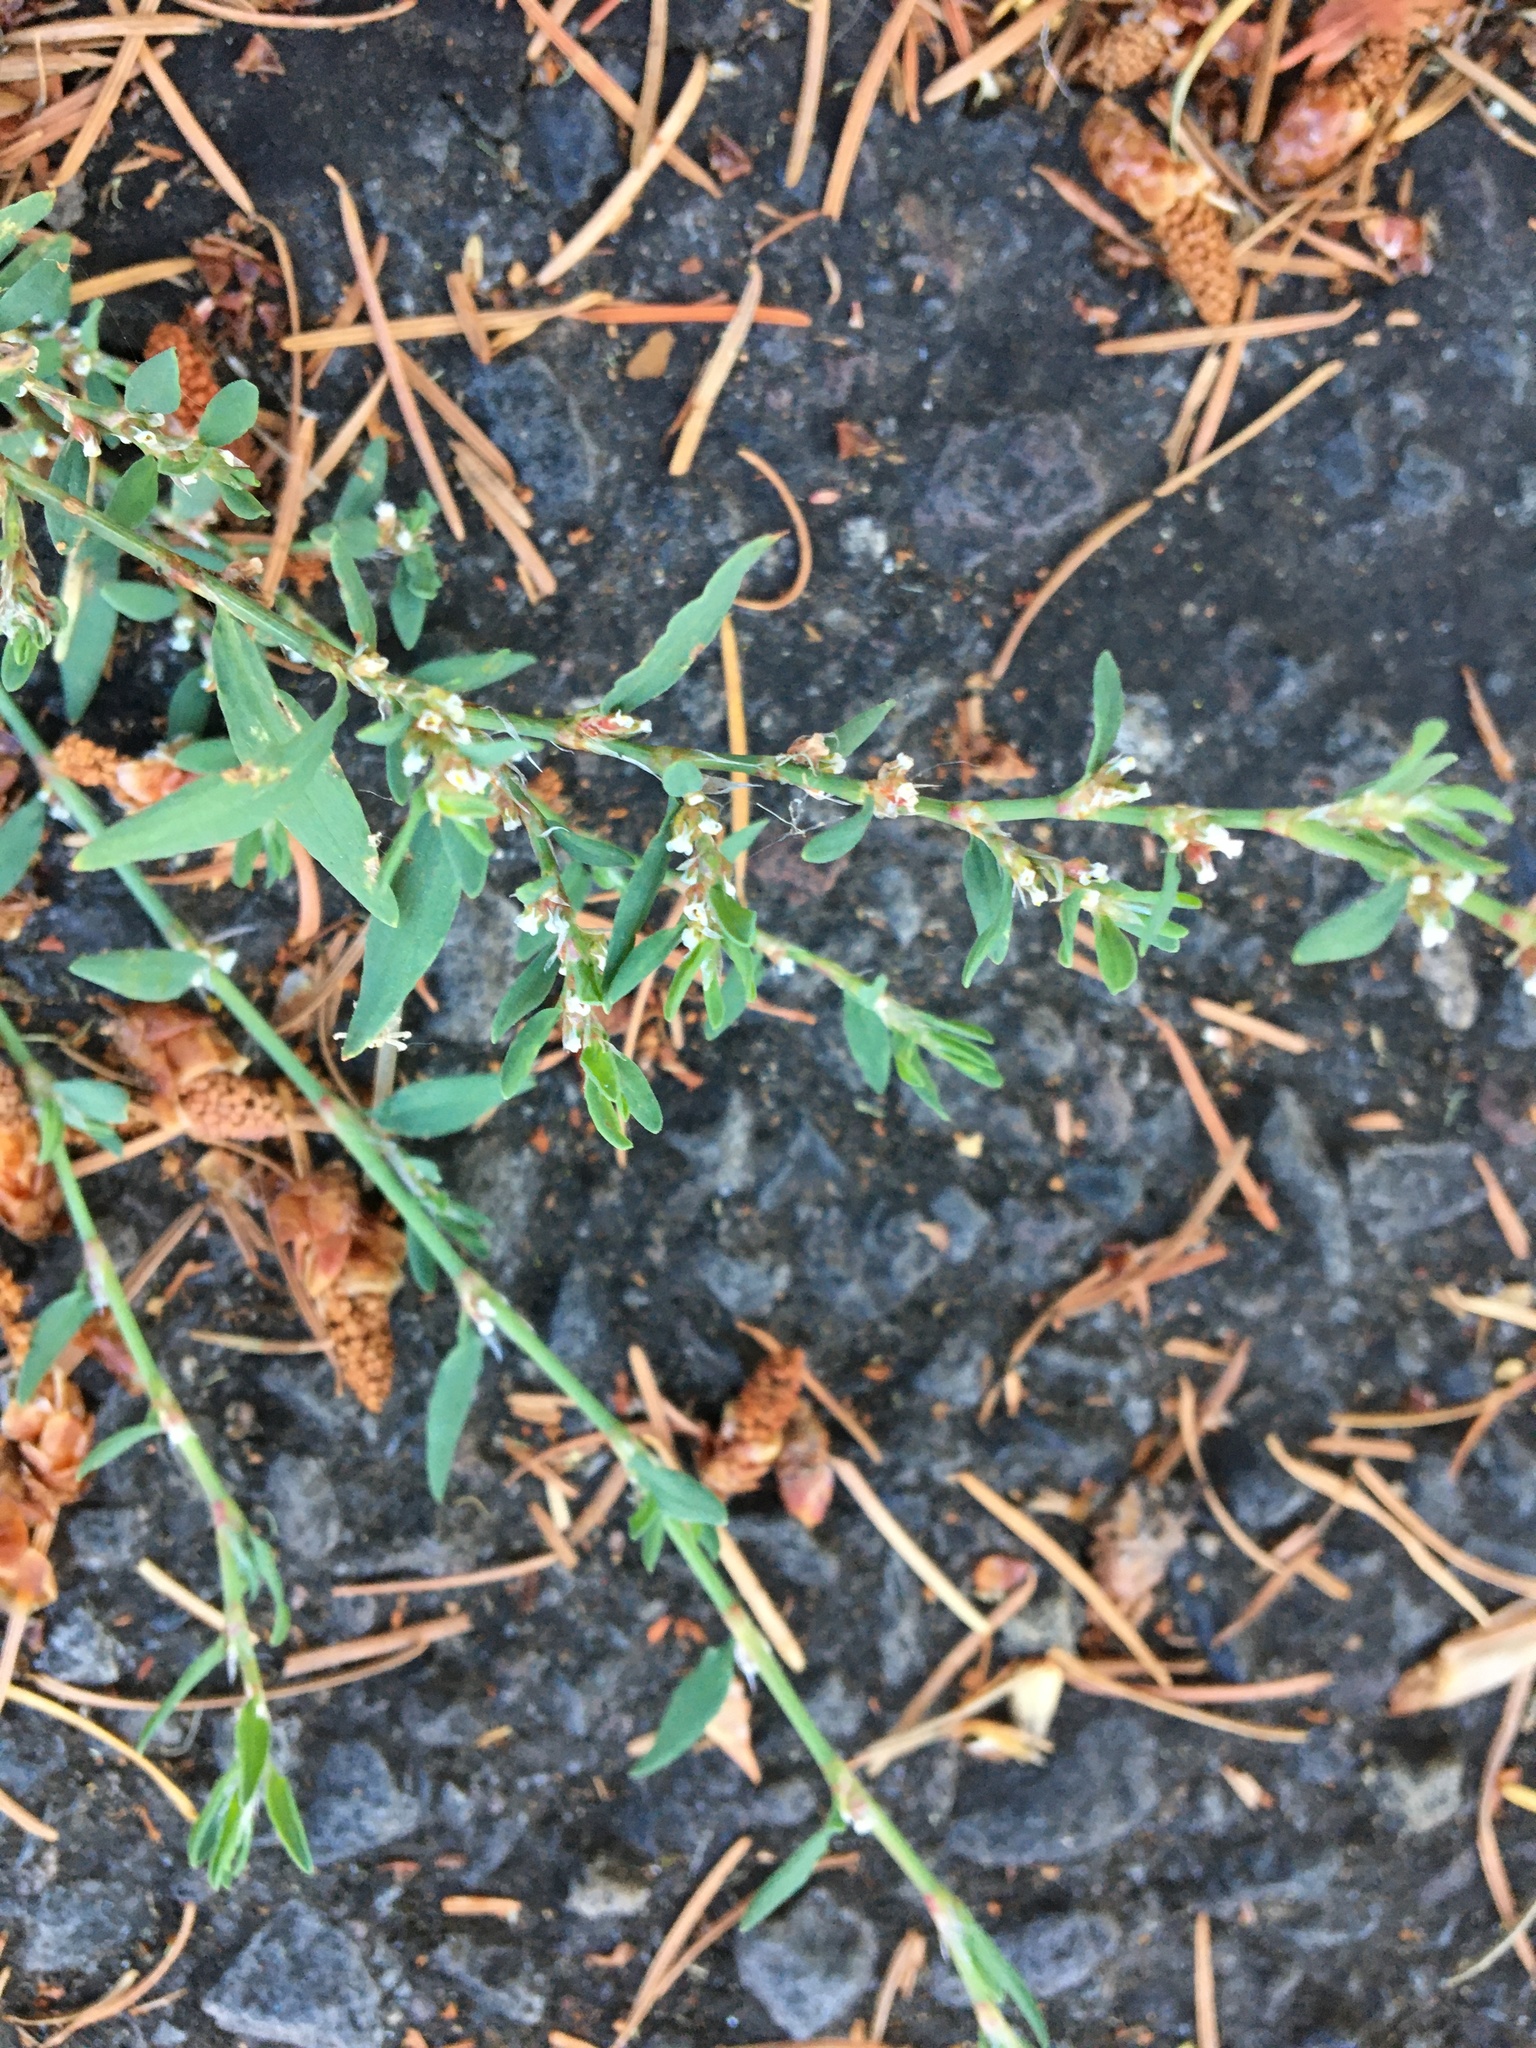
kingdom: Plantae
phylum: Tracheophyta
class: Magnoliopsida
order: Caryophyllales
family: Polygonaceae
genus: Polygonum
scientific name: Polygonum aviculare
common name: Prostrate knotweed
